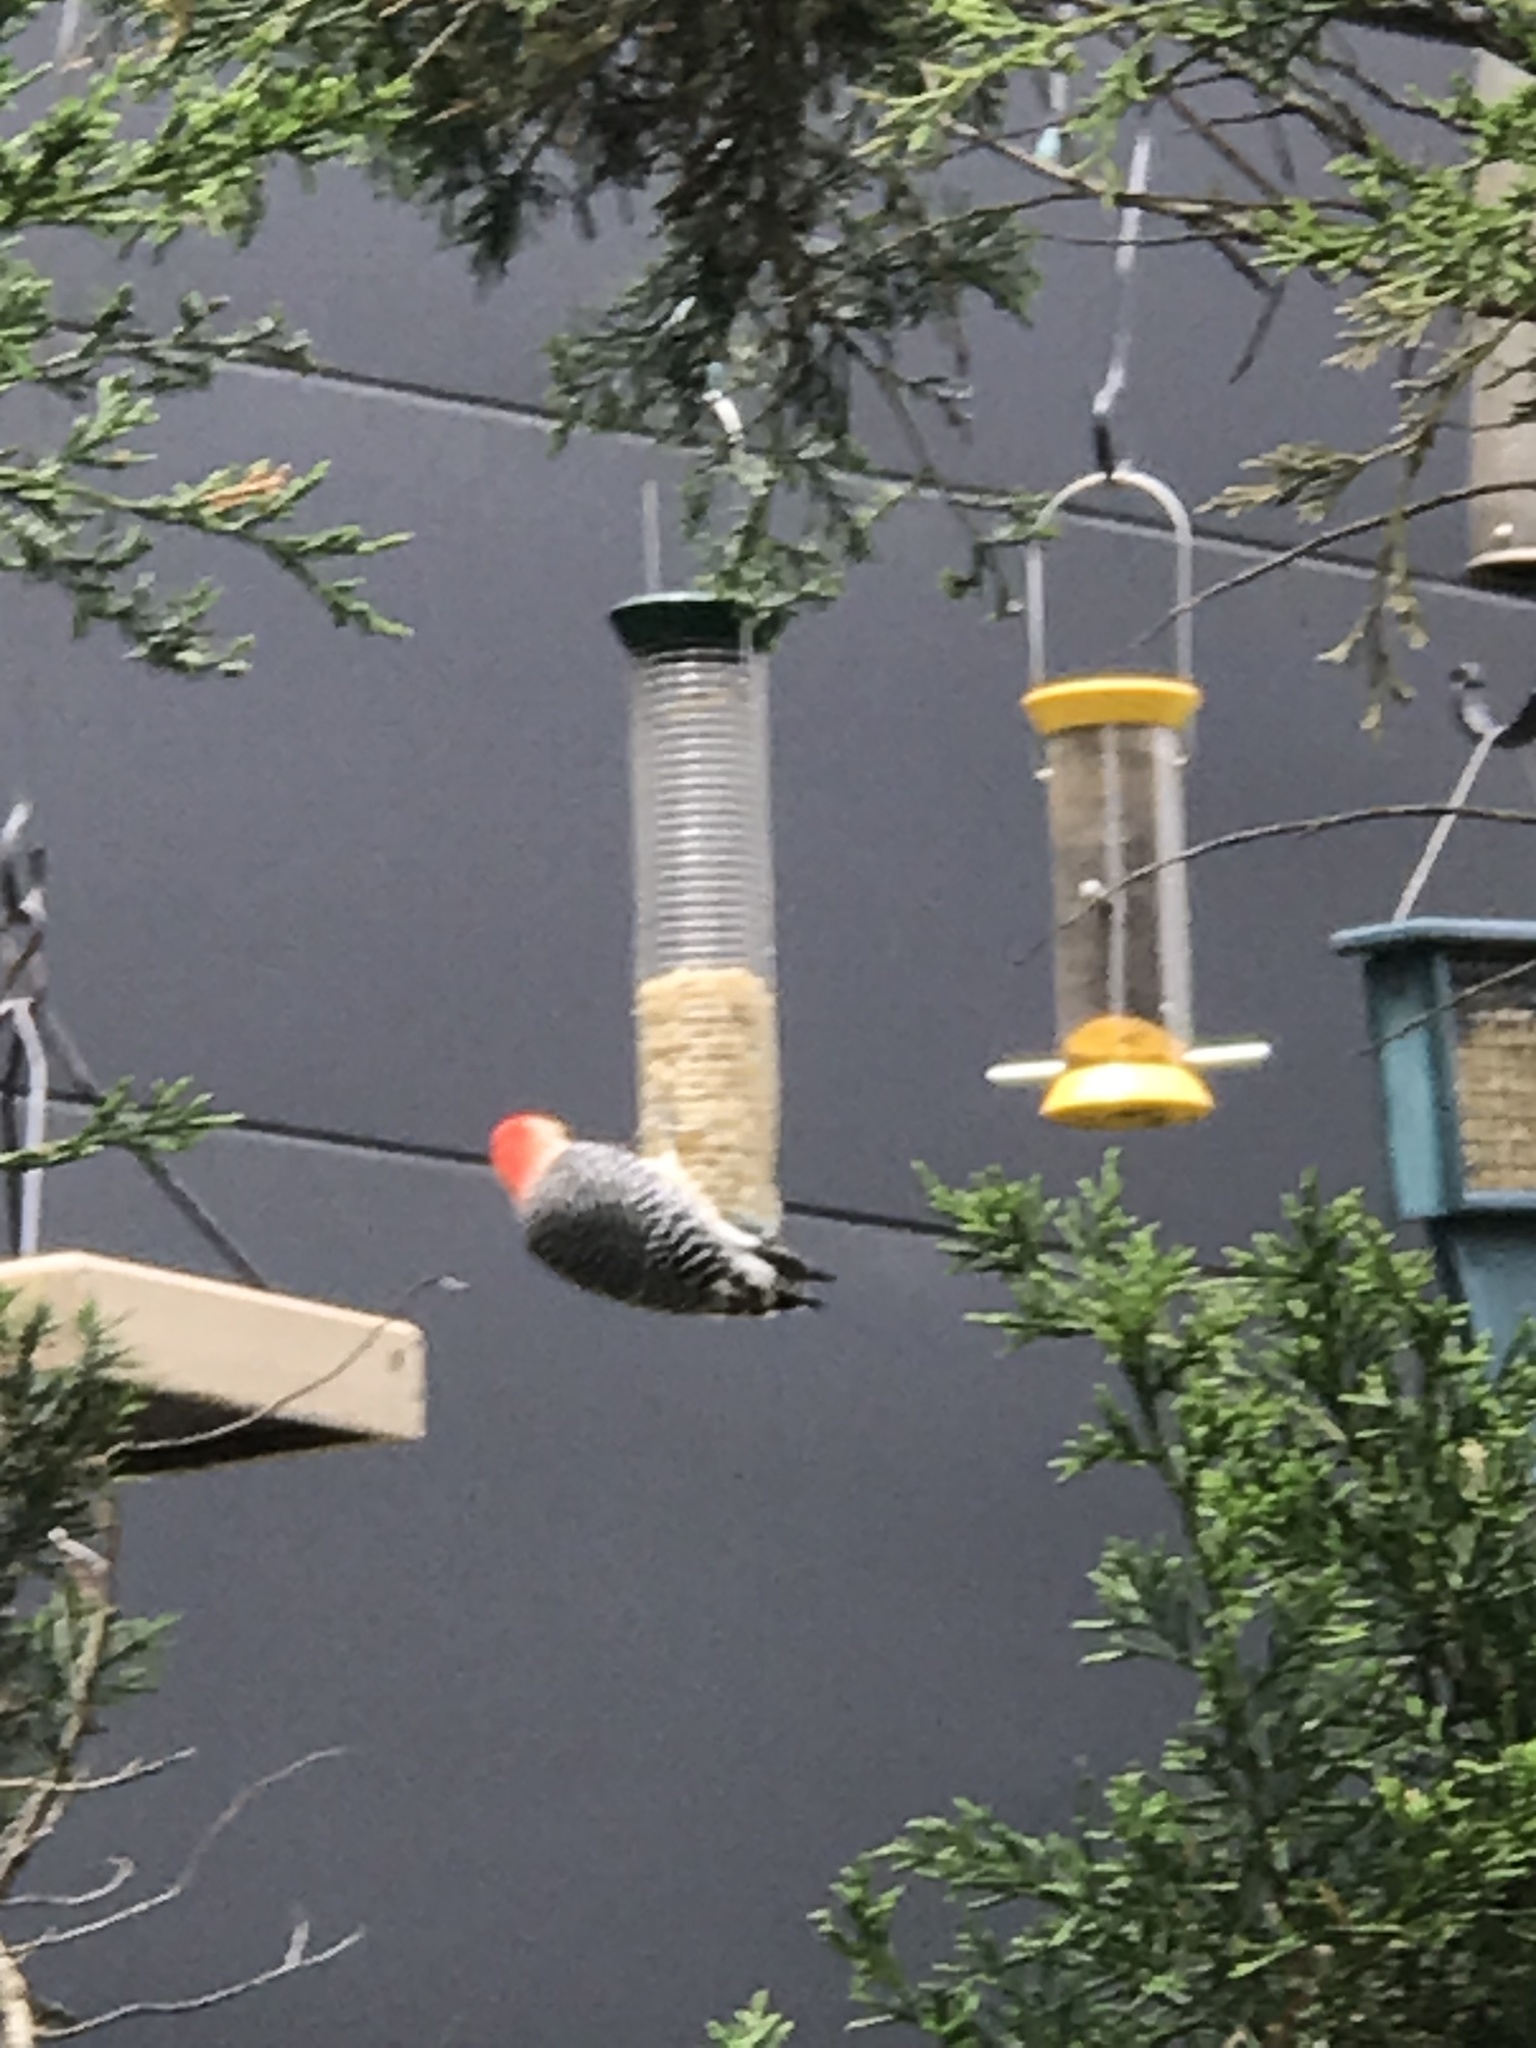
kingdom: Animalia
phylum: Chordata
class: Aves
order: Piciformes
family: Picidae
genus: Melanerpes
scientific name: Melanerpes carolinus
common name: Red-bellied woodpecker
